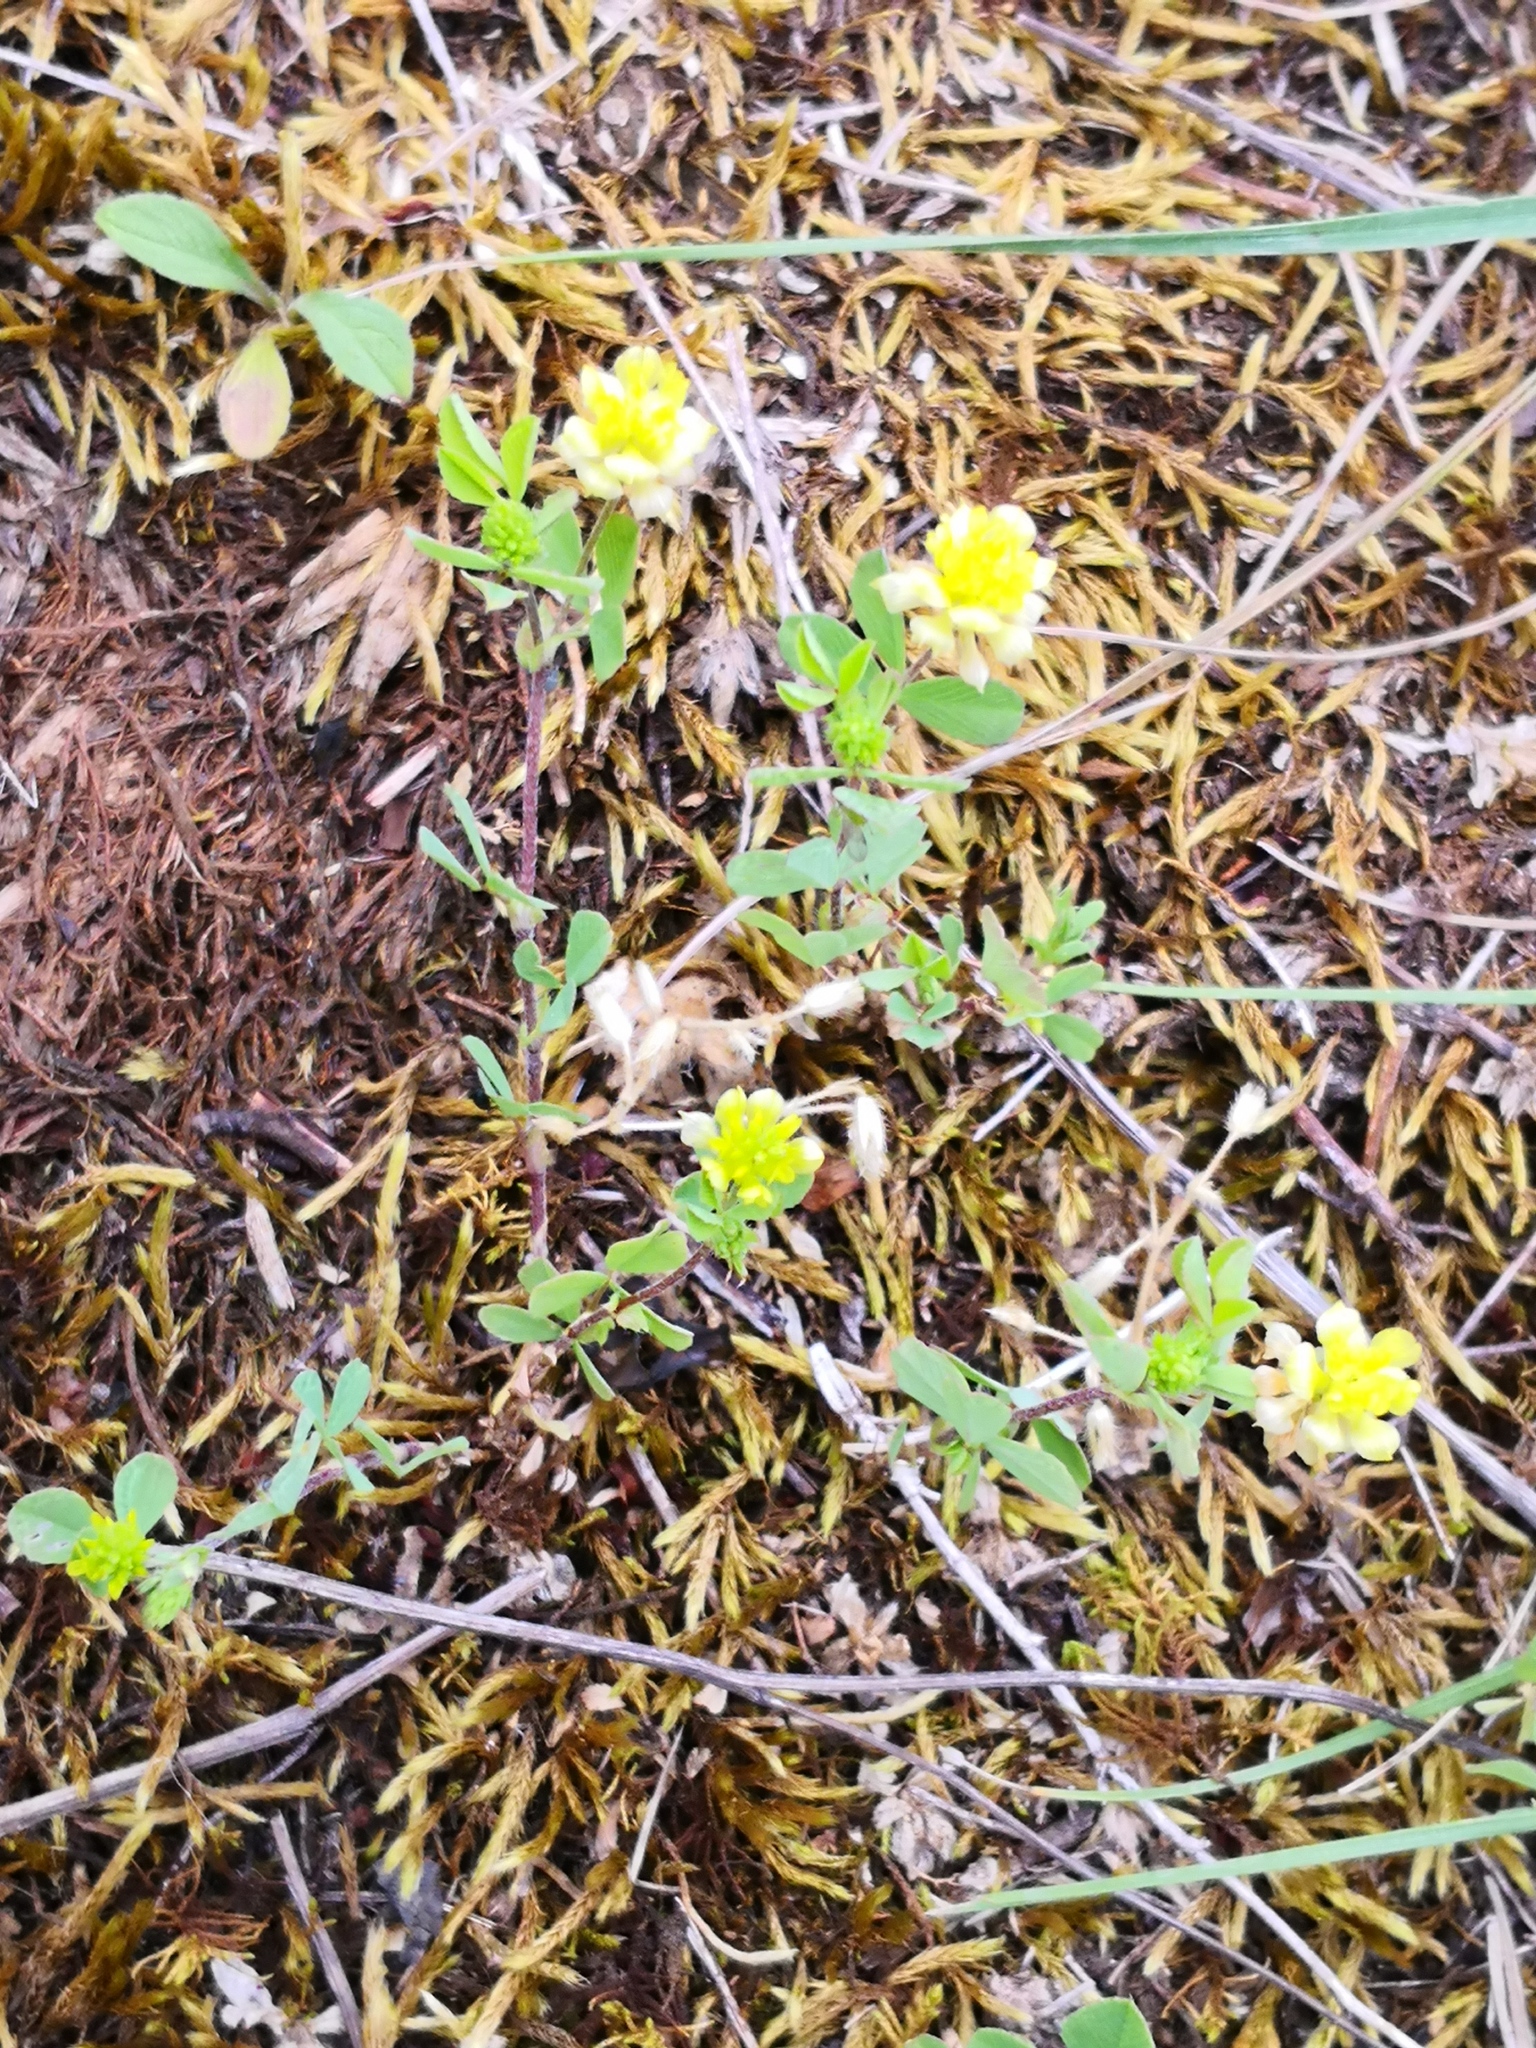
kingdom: Plantae
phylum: Tracheophyta
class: Magnoliopsida
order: Fabales
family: Fabaceae
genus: Trifolium
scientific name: Trifolium campestre
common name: Field clover
